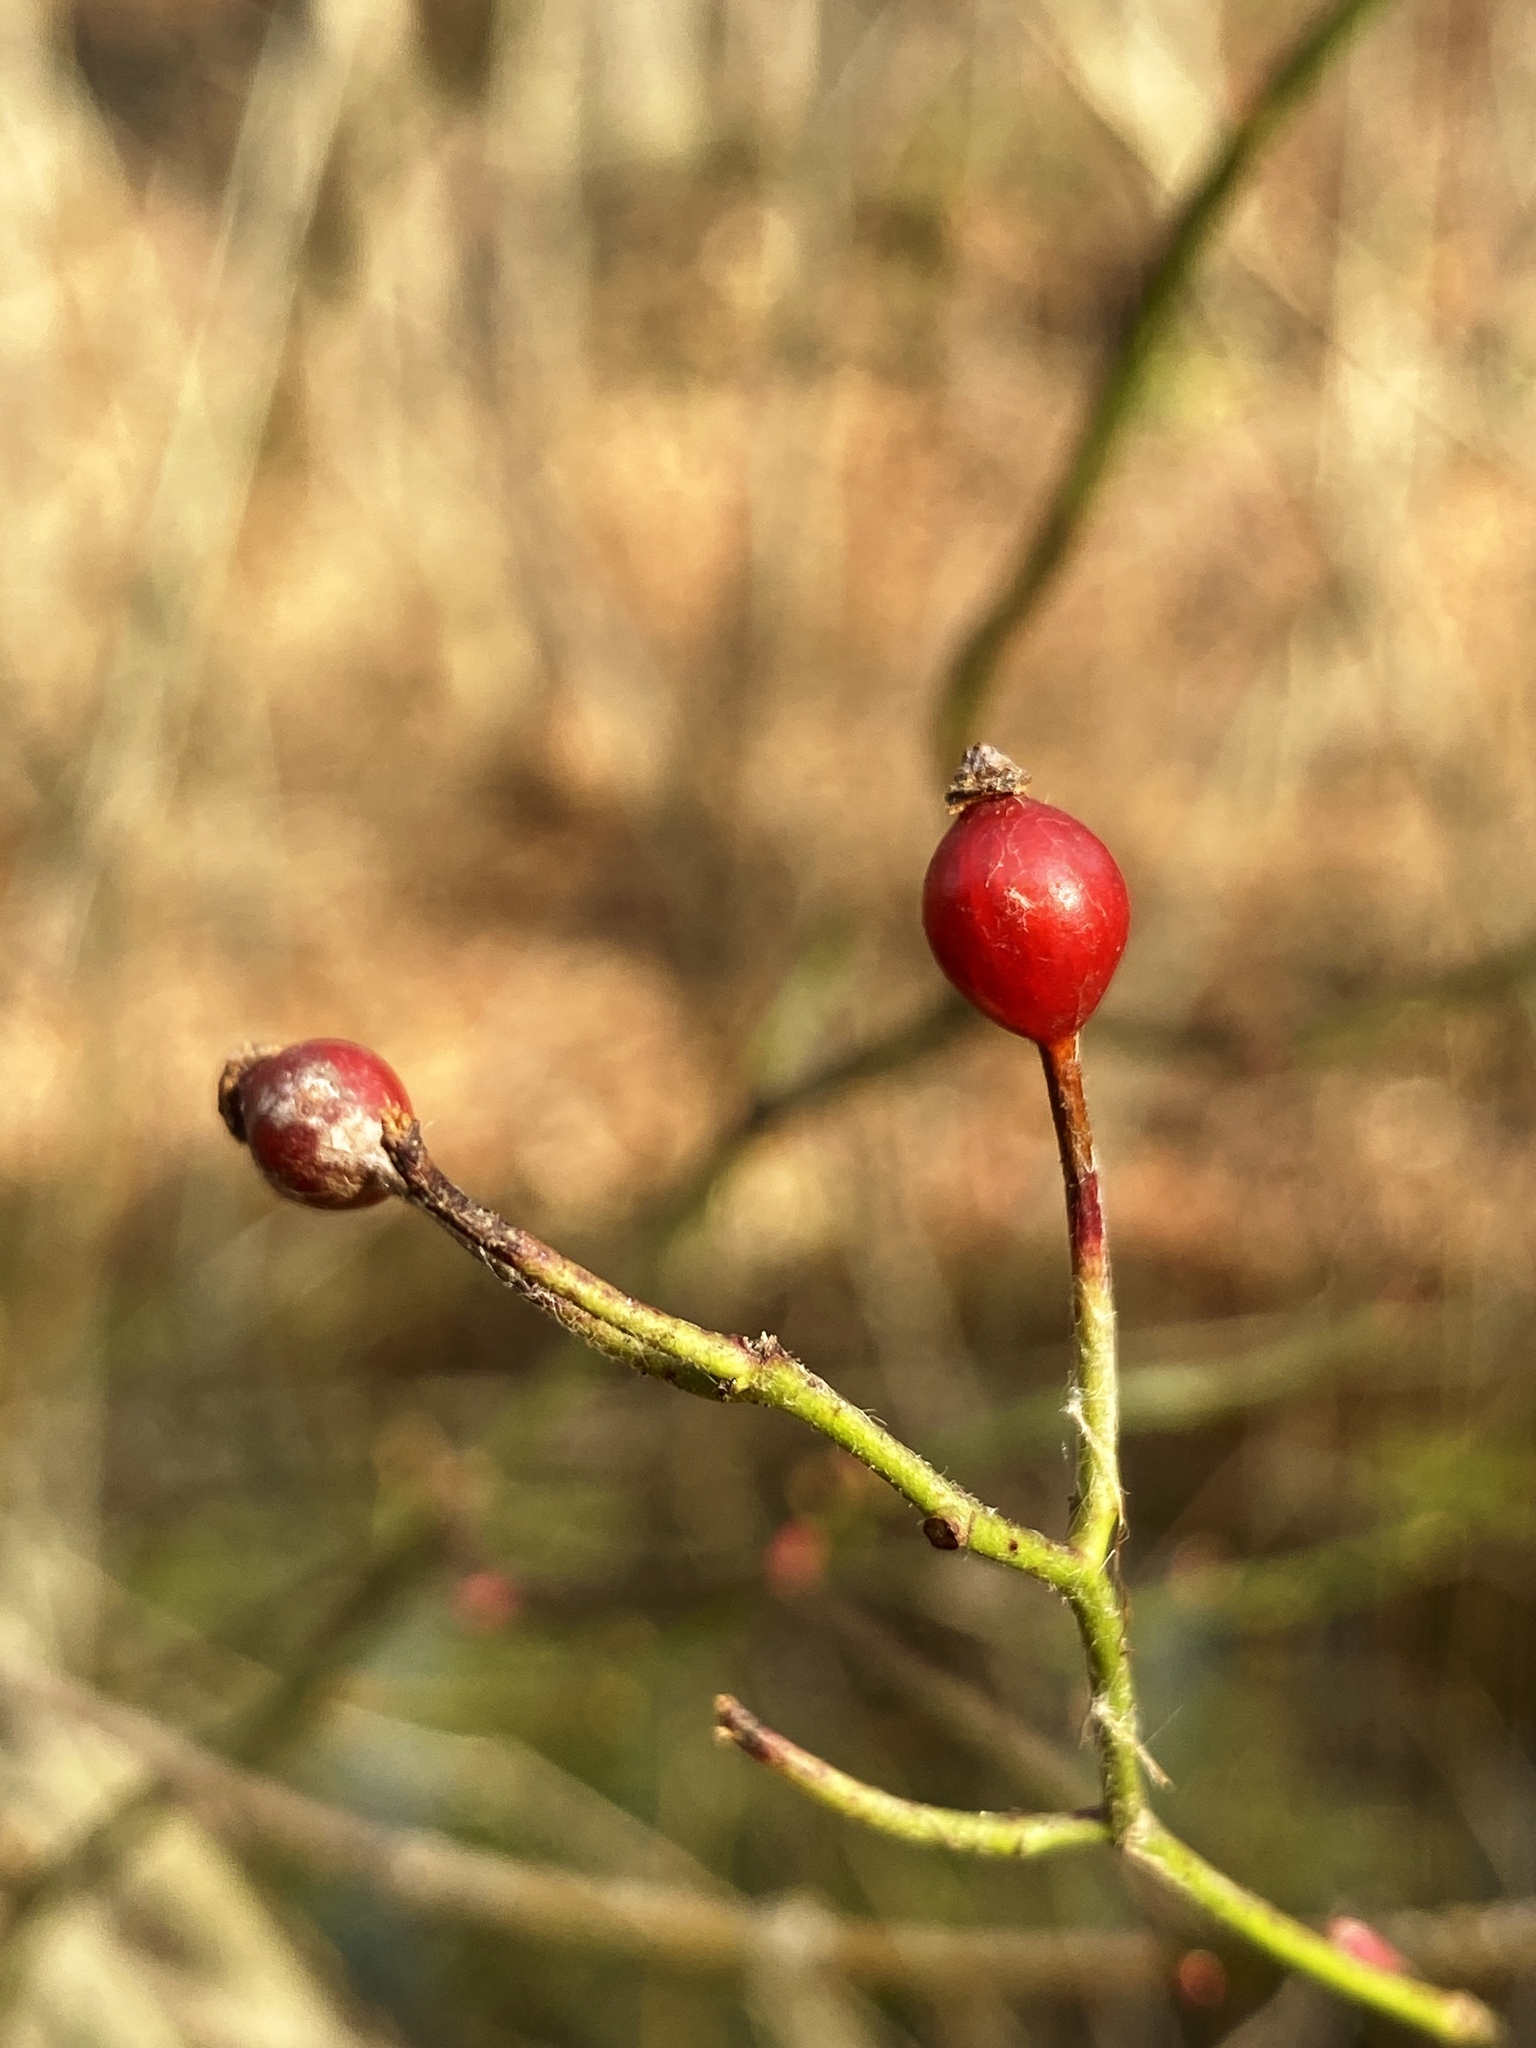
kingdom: Plantae
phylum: Tracheophyta
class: Magnoliopsida
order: Rosales
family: Rosaceae
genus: Rosa
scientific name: Rosa multiflora
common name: Multiflora rose
